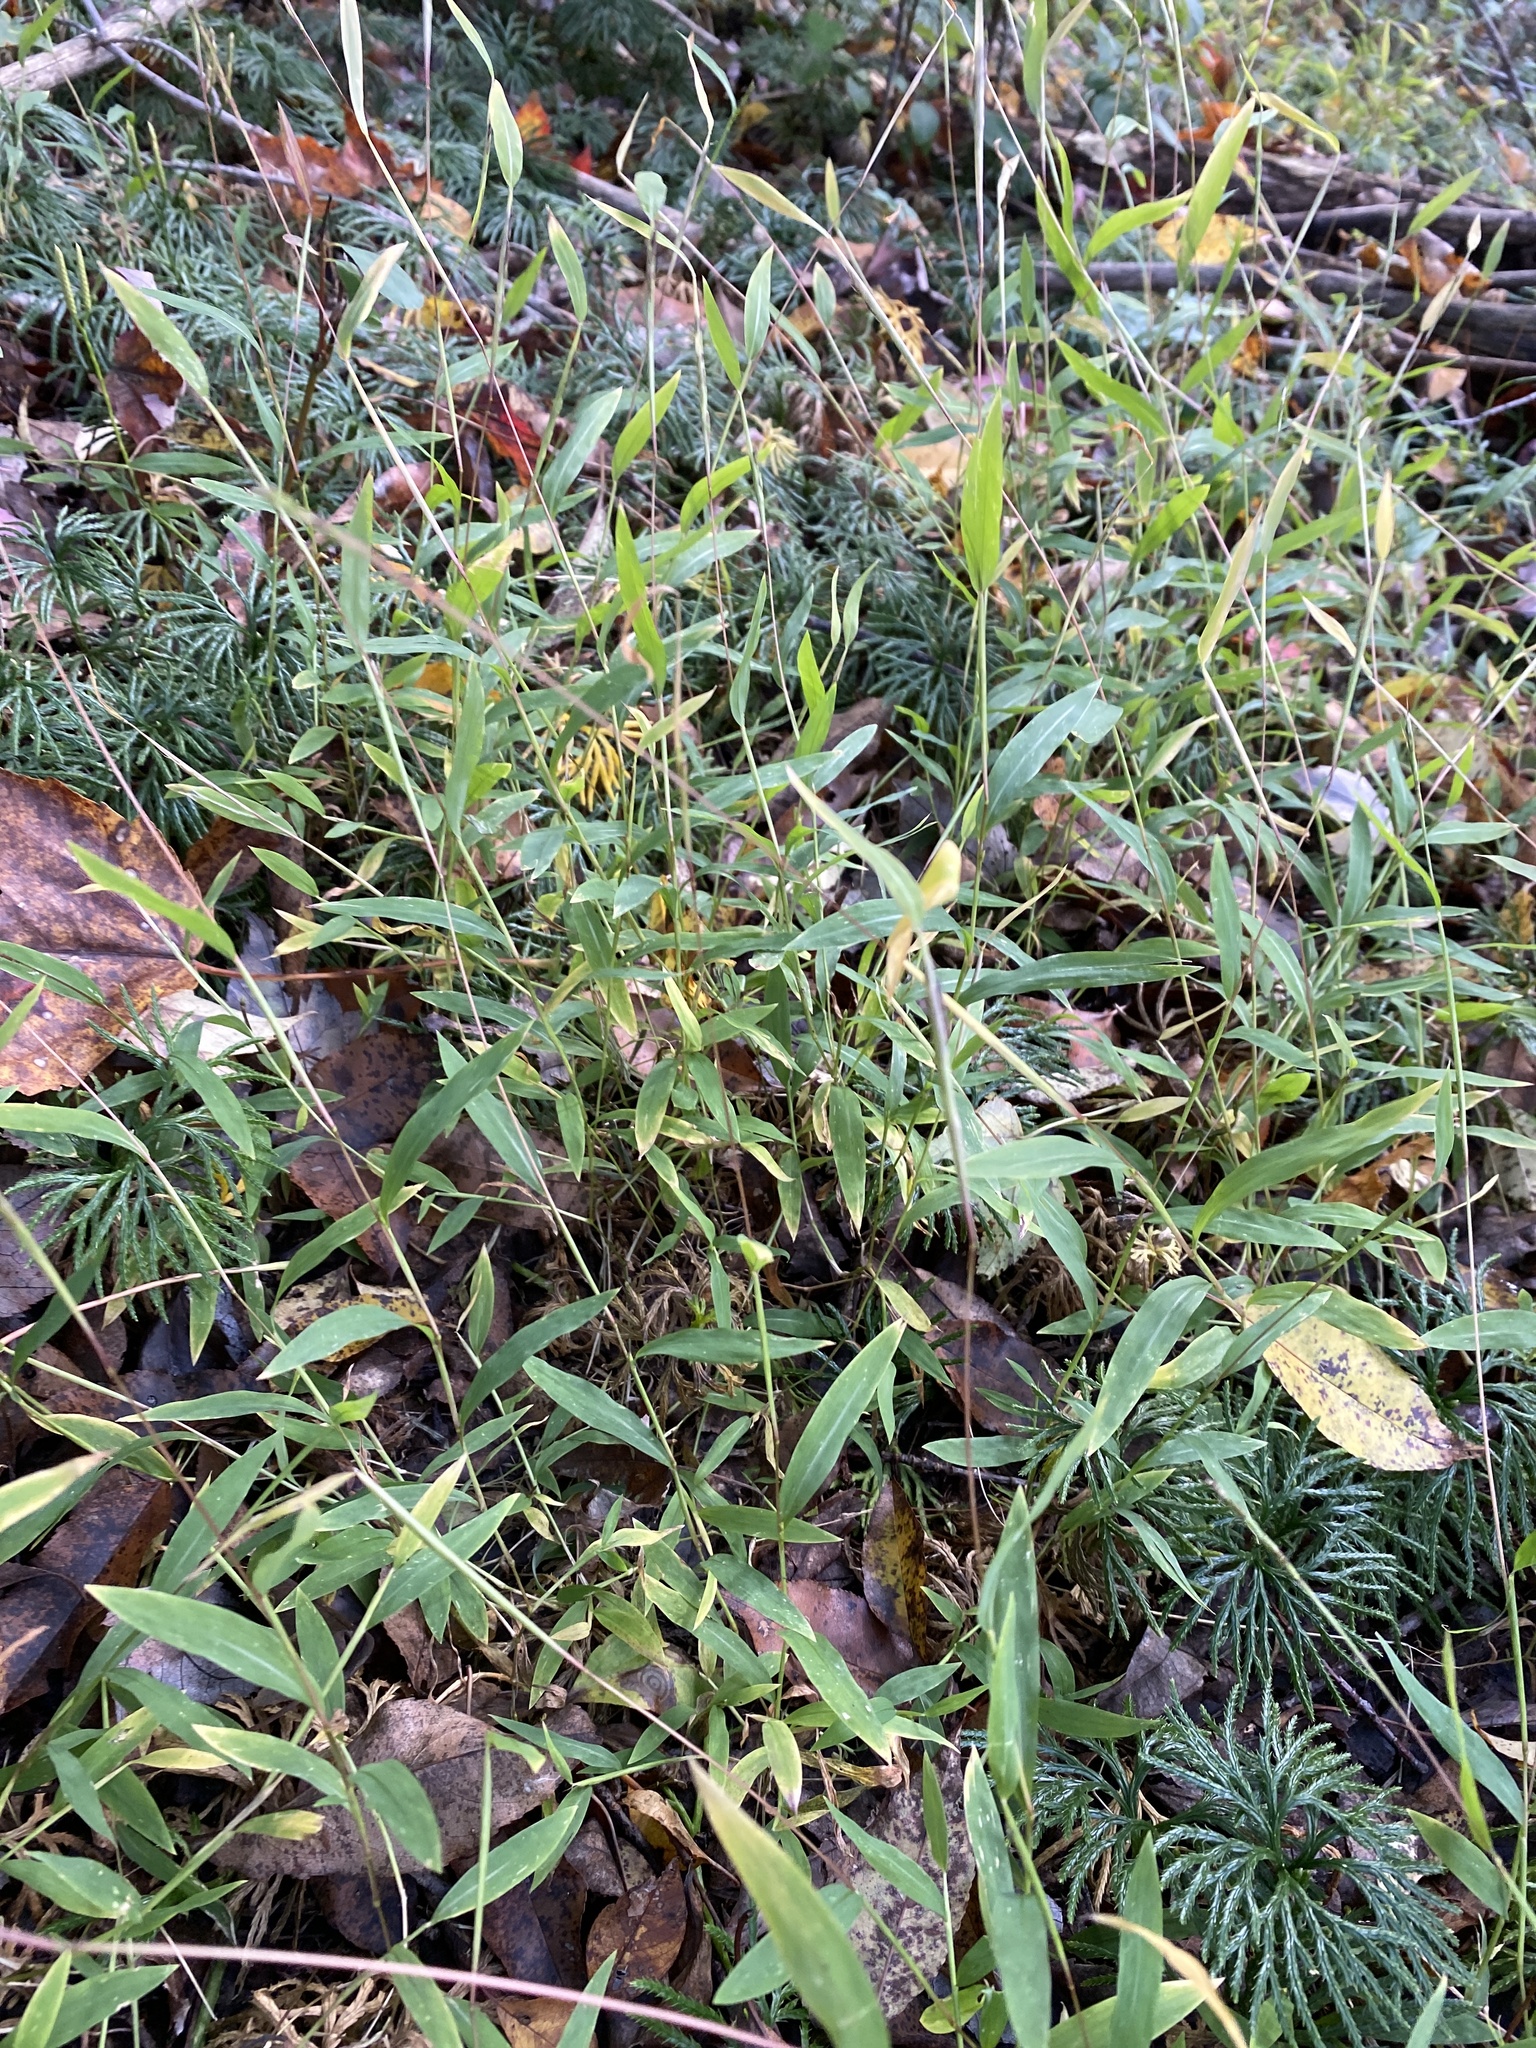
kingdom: Plantae
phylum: Tracheophyta
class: Liliopsida
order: Poales
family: Poaceae
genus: Microstegium
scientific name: Microstegium vimineum
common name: Japanese stiltgrass
